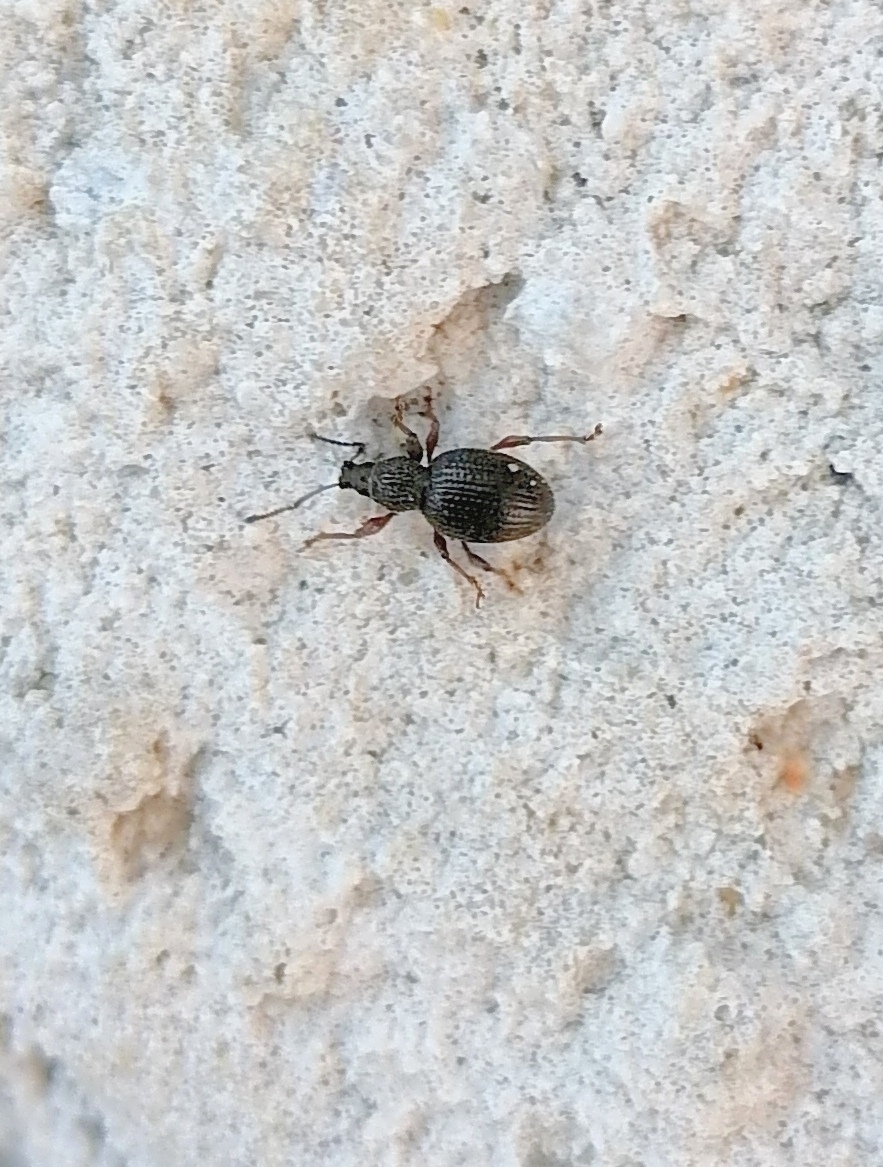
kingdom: Animalia
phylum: Arthropoda
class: Insecta
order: Coleoptera
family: Curculionidae
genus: Otiorhynchus
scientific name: Otiorhynchus ovatus
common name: Strawberry root weevil
